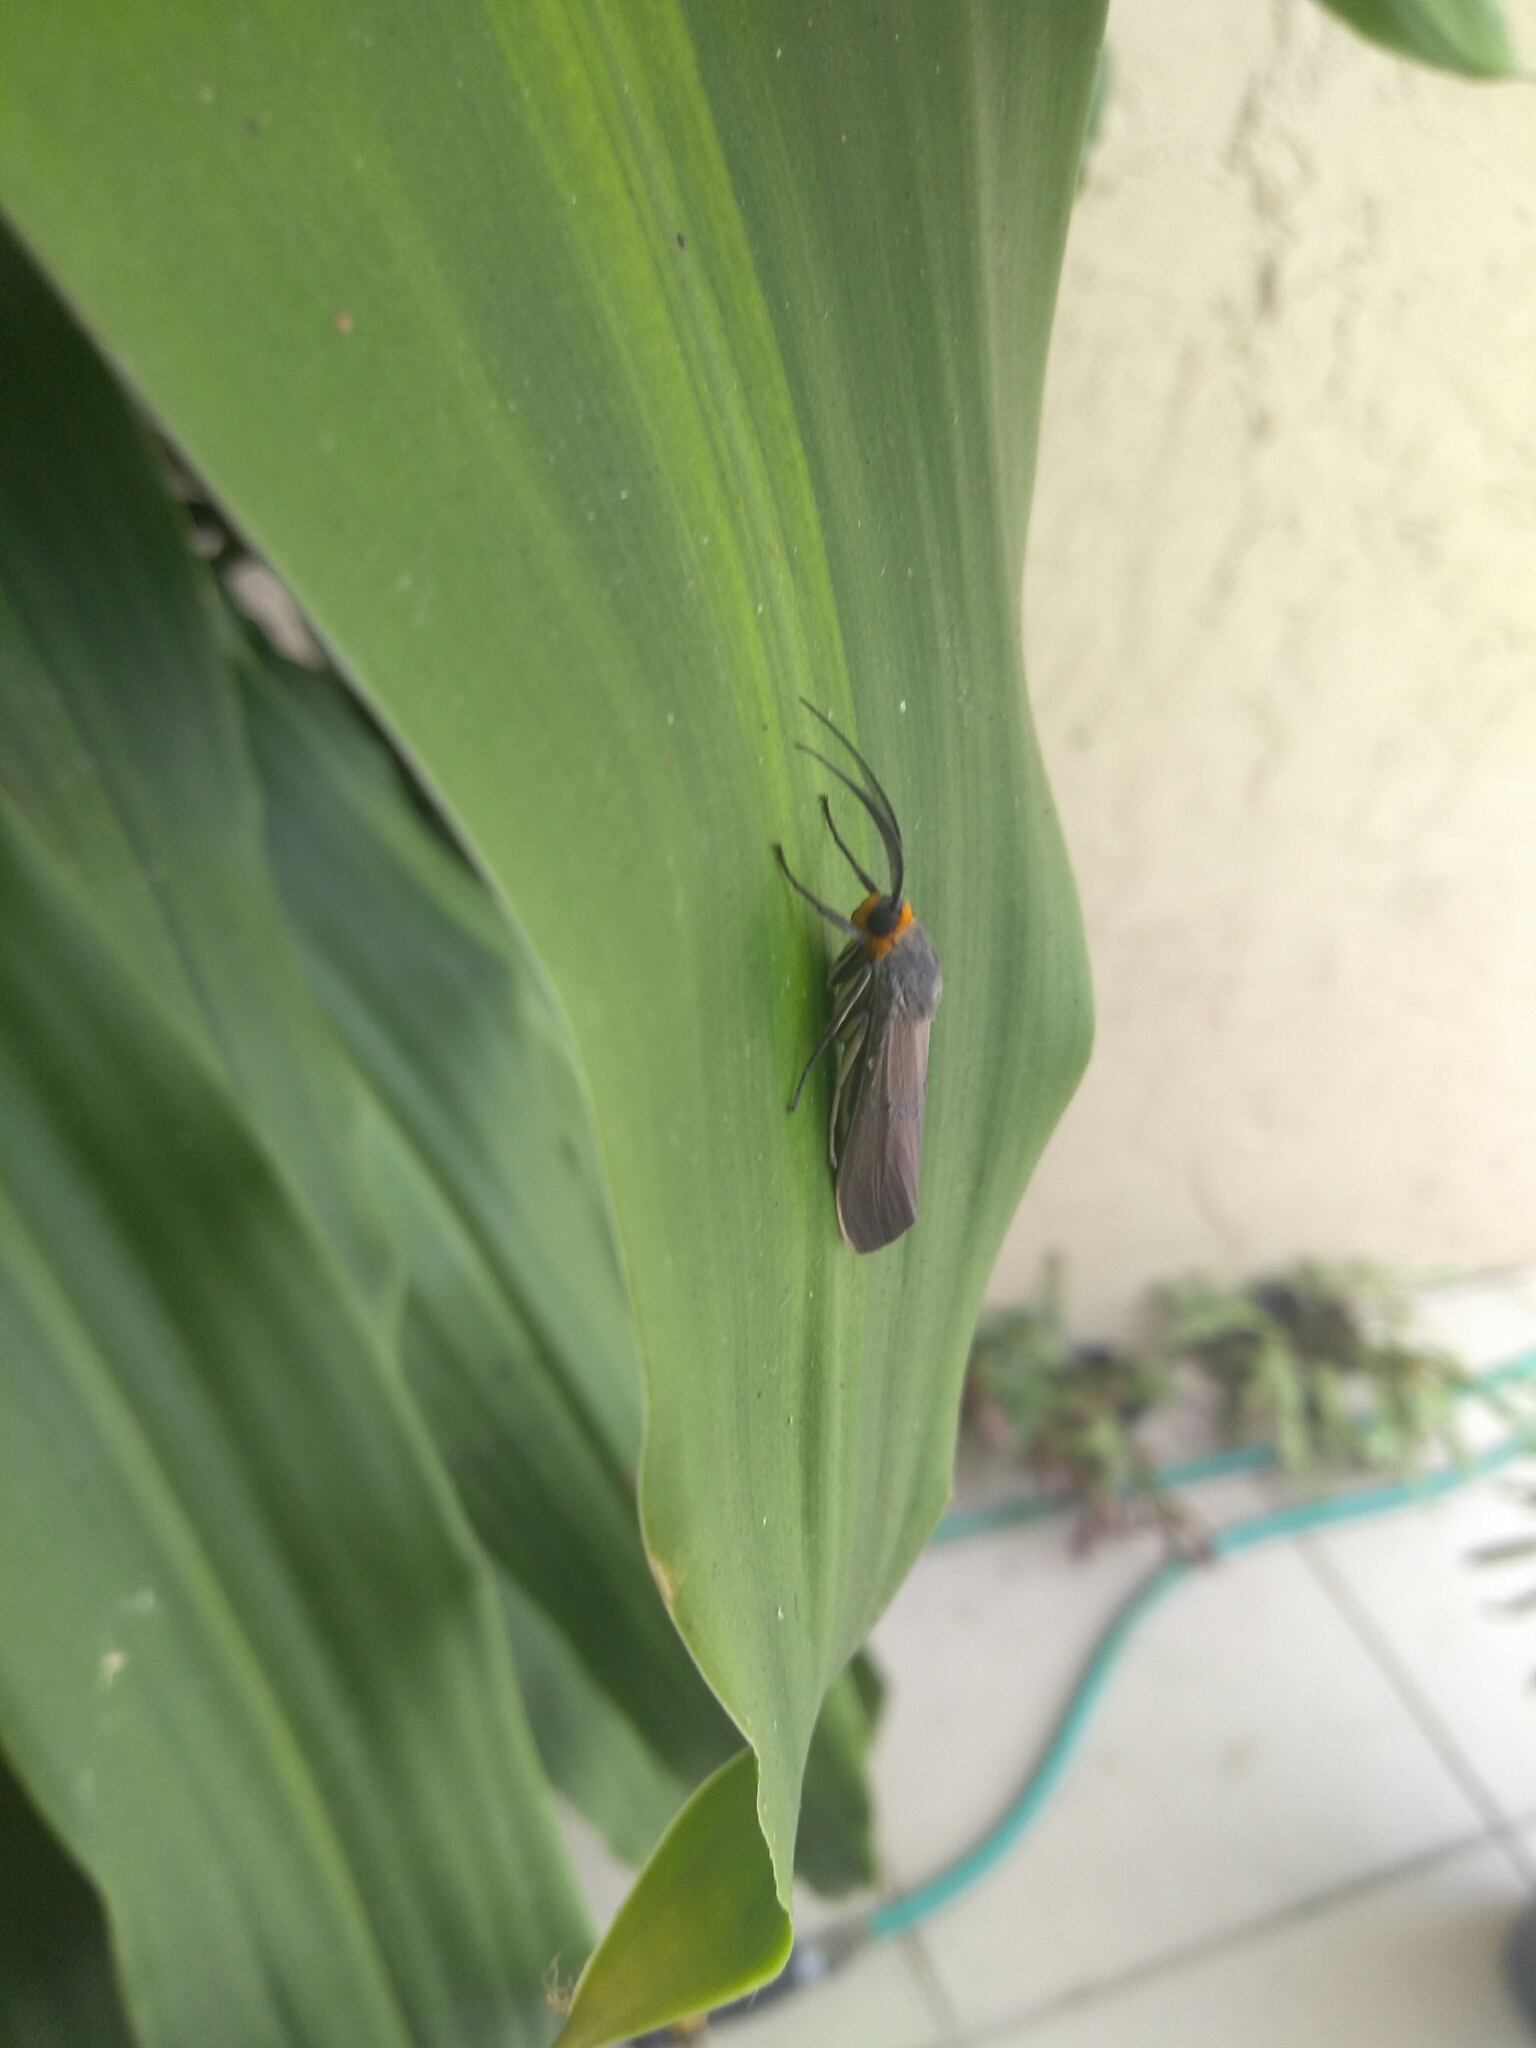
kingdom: Animalia
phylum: Arthropoda
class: Insecta
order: Lepidoptera
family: Erebidae
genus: Lymire
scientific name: Lymire edwardsii
